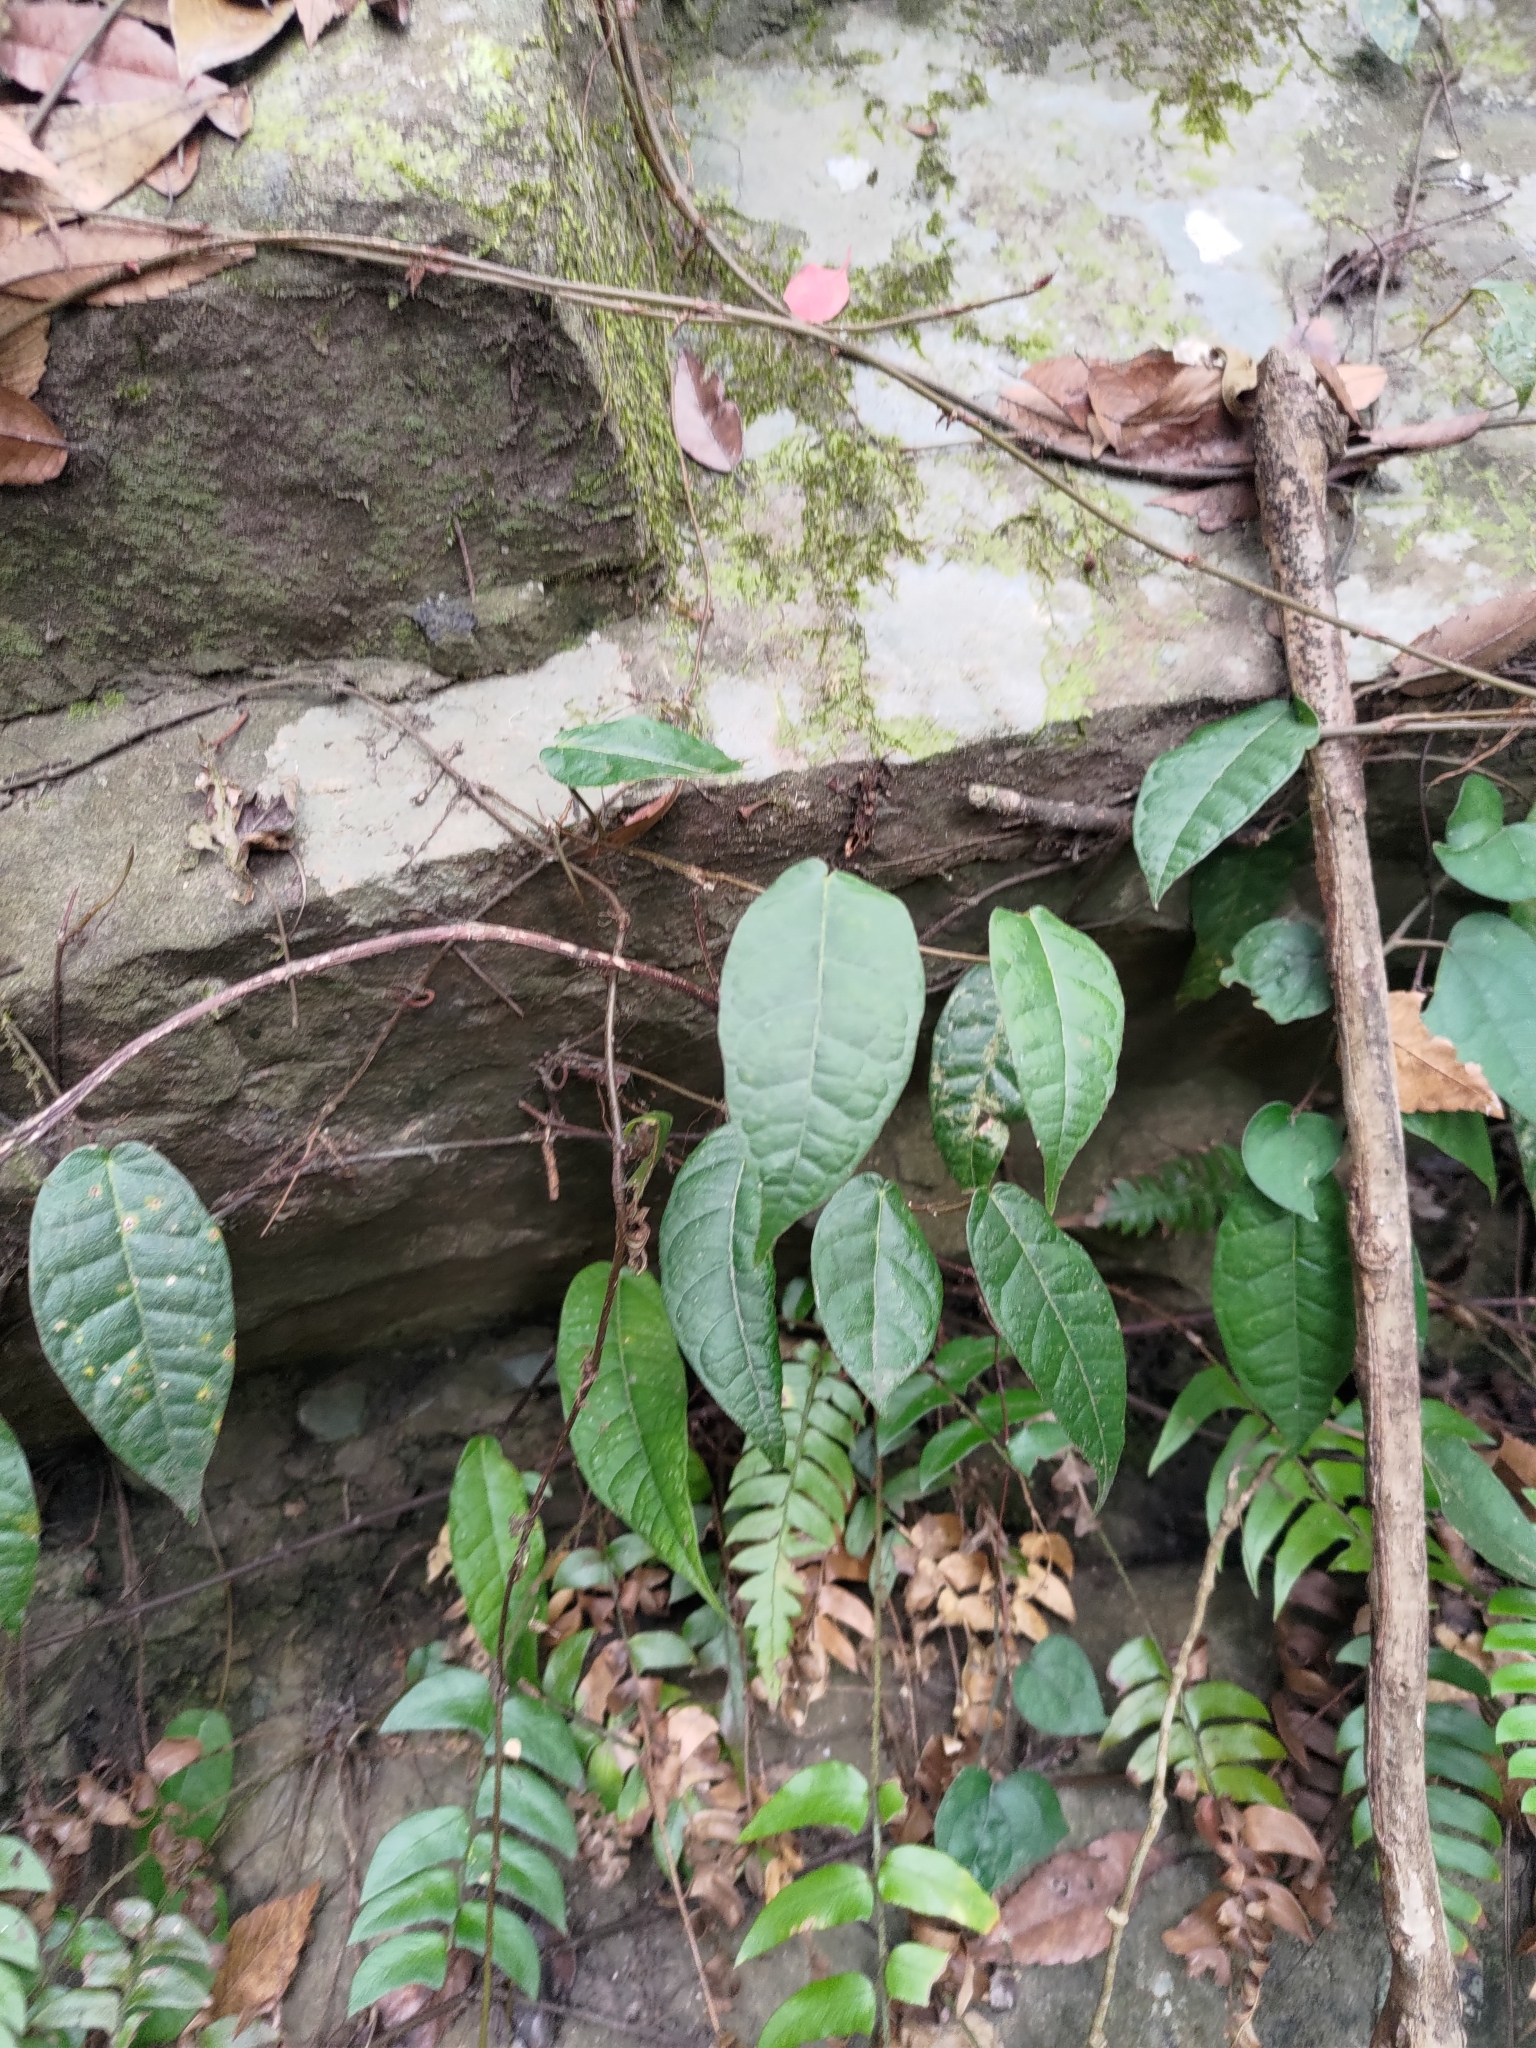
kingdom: Plantae
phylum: Tracheophyta
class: Magnoliopsida
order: Rosales
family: Moraceae
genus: Ficus
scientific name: Ficus sarmentosa
